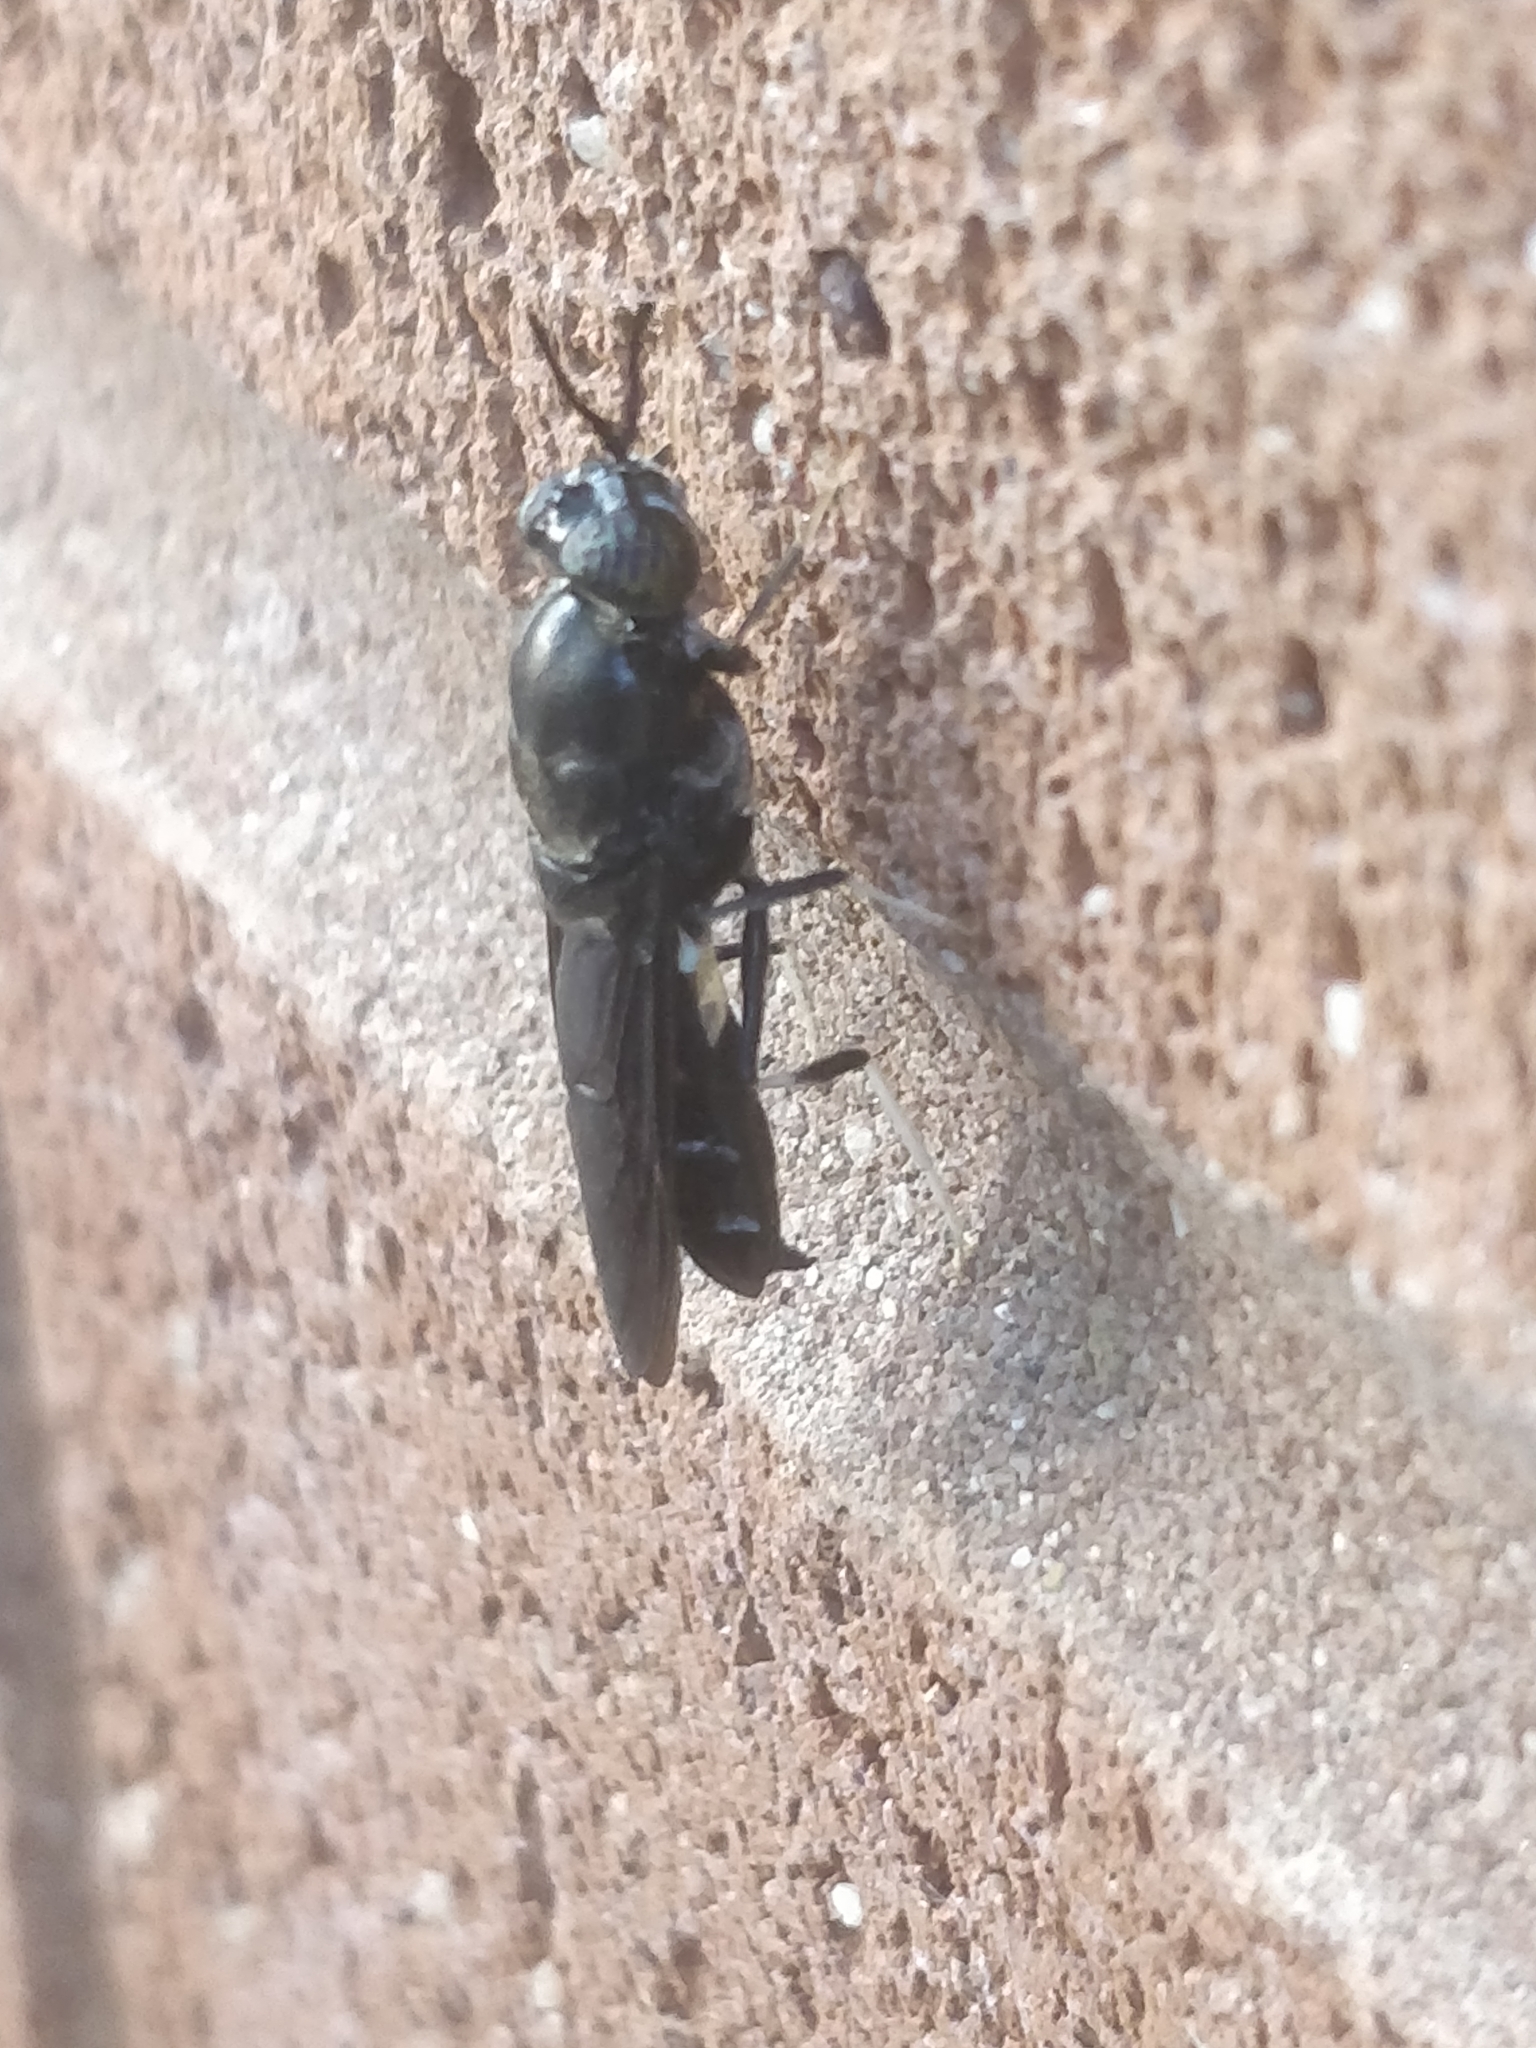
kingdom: Animalia
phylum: Arthropoda
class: Insecta
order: Diptera
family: Stratiomyidae
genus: Hermetia
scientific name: Hermetia illucens
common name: Black soldier fly
